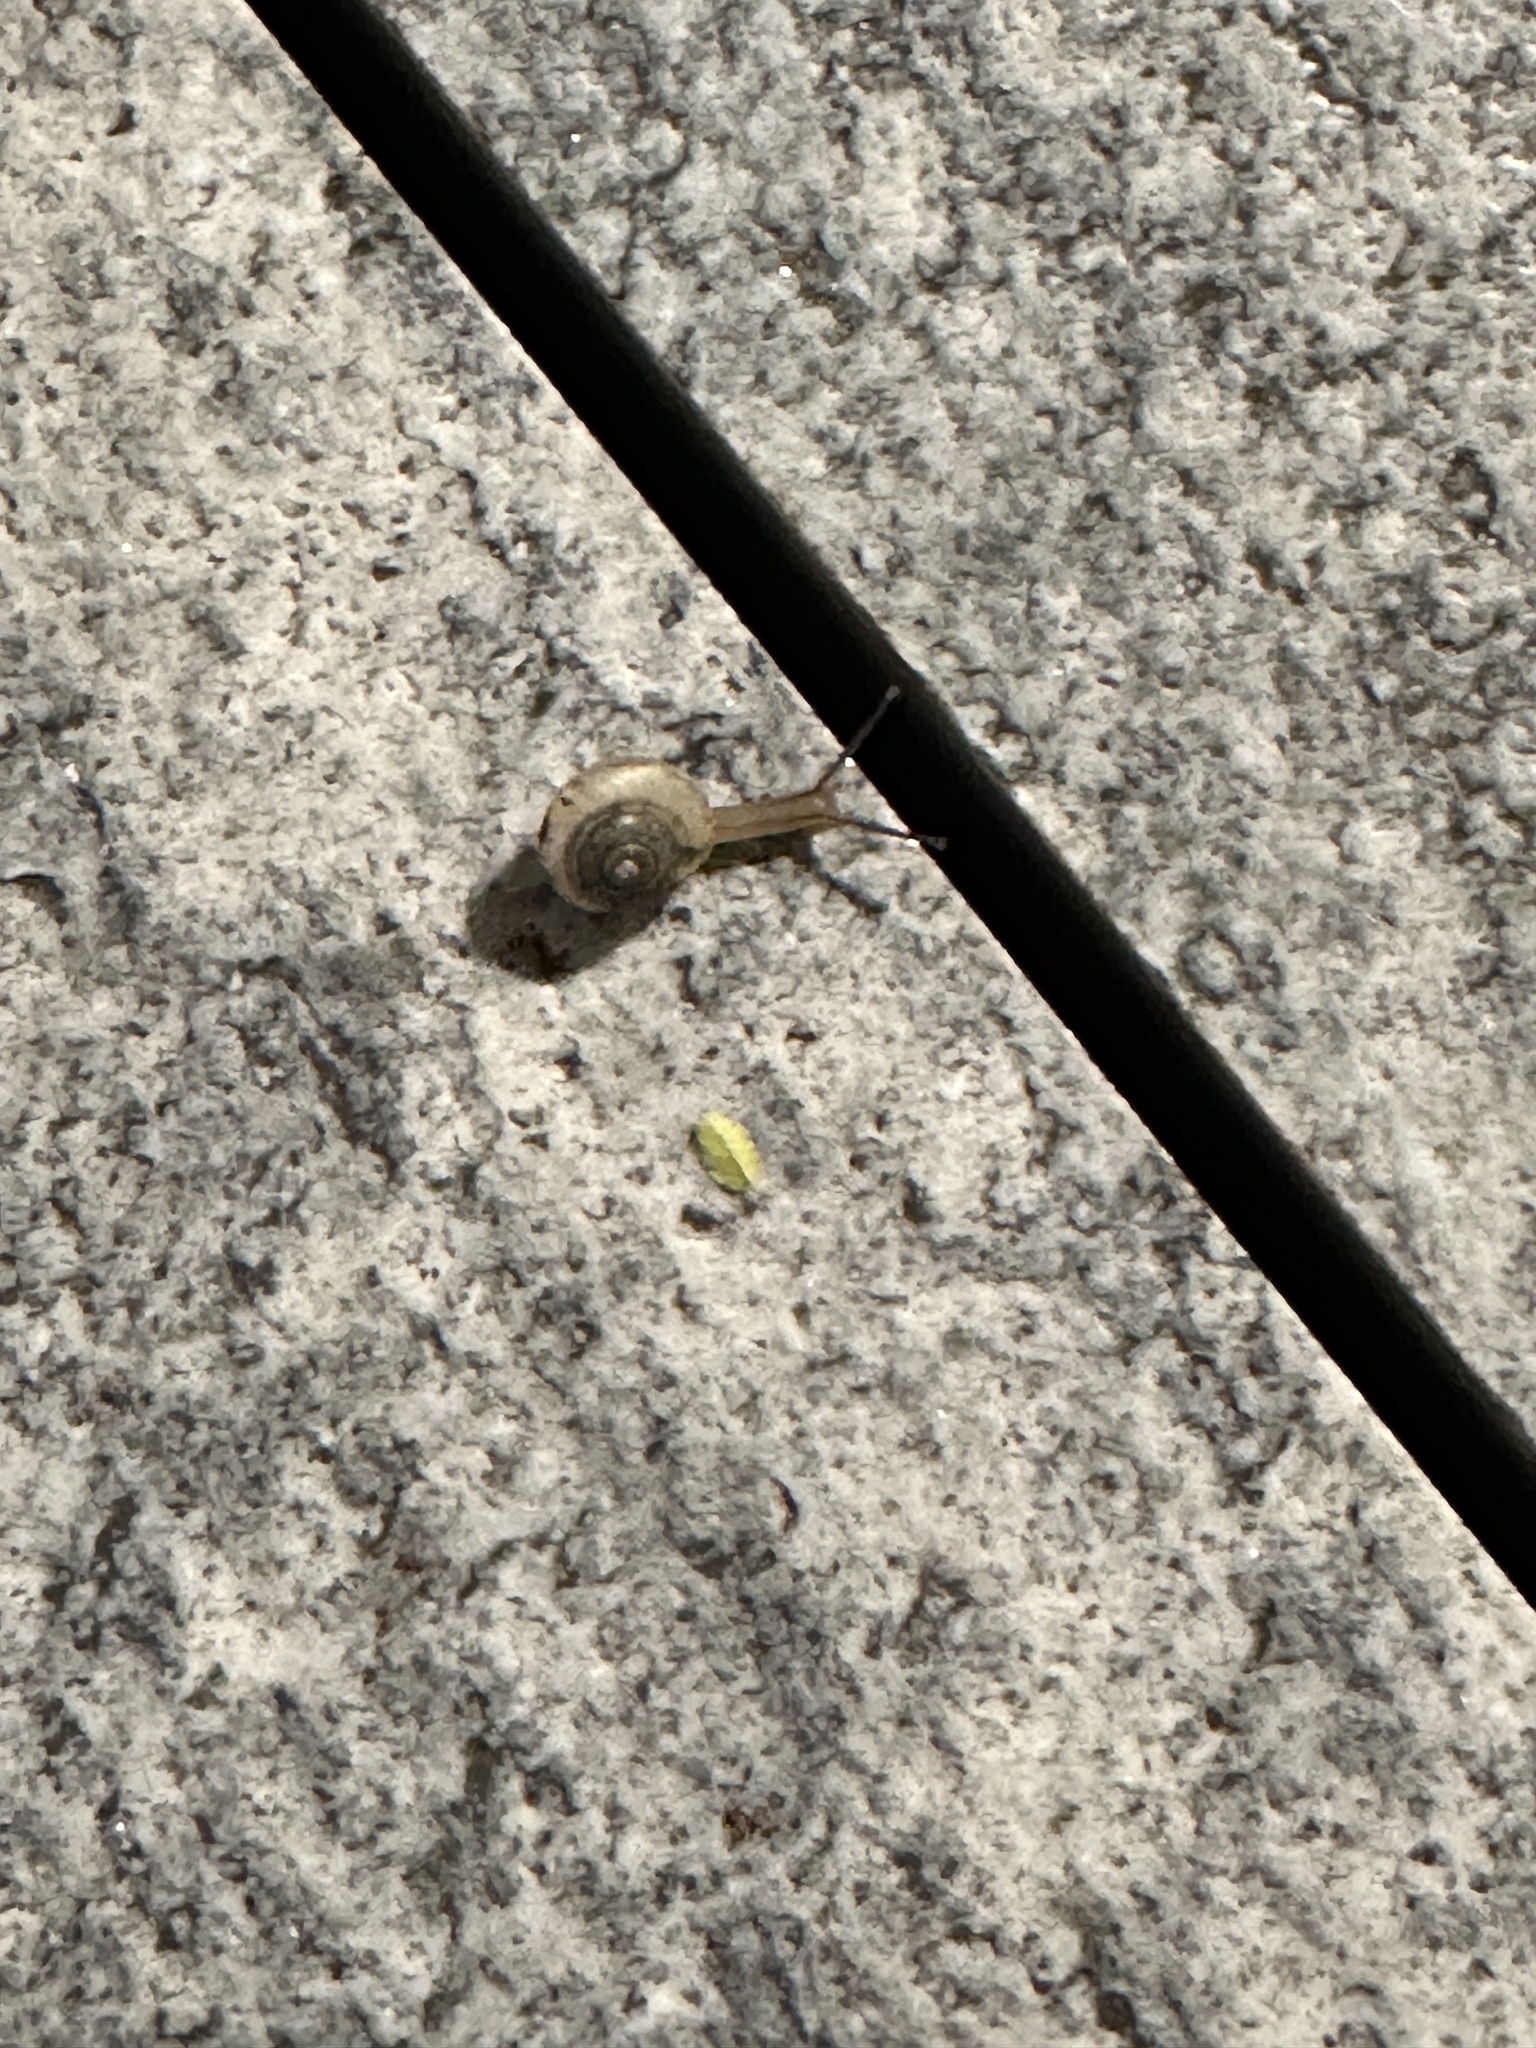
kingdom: Animalia
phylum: Mollusca
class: Gastropoda
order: Stylommatophora
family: Camaenidae
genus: Bradybaena
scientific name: Bradybaena similaris
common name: Asian trampsnail
